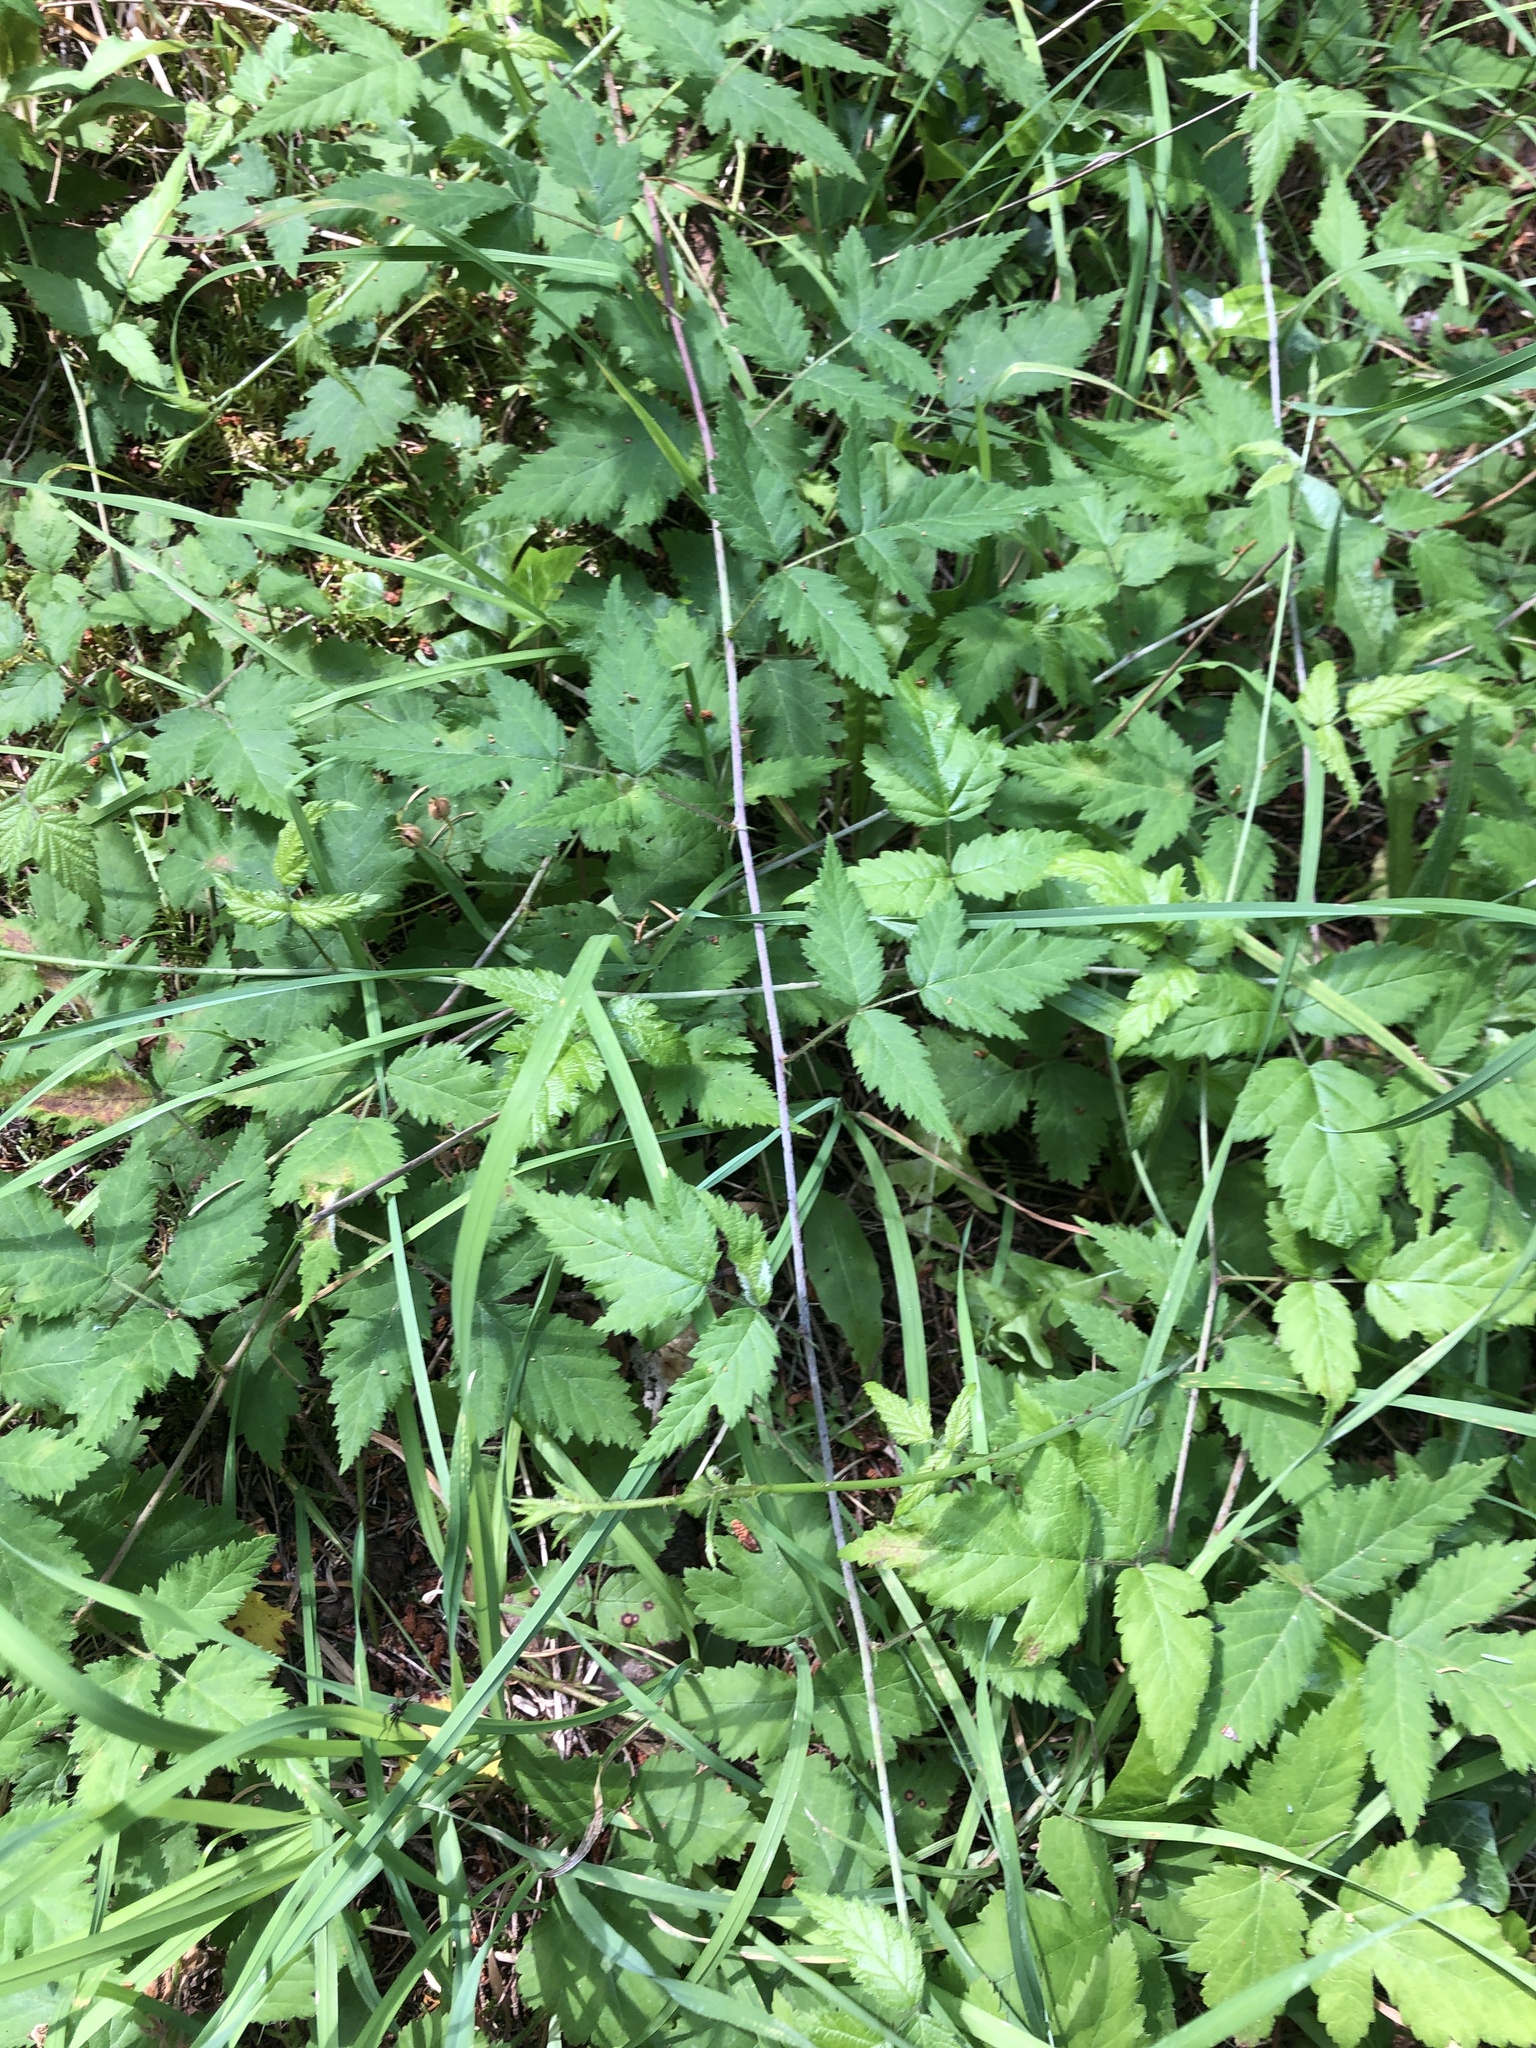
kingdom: Plantae
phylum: Tracheophyta
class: Magnoliopsida
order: Rosales
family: Rosaceae
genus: Rubus
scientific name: Rubus ursinus
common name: Pacific blackberry
